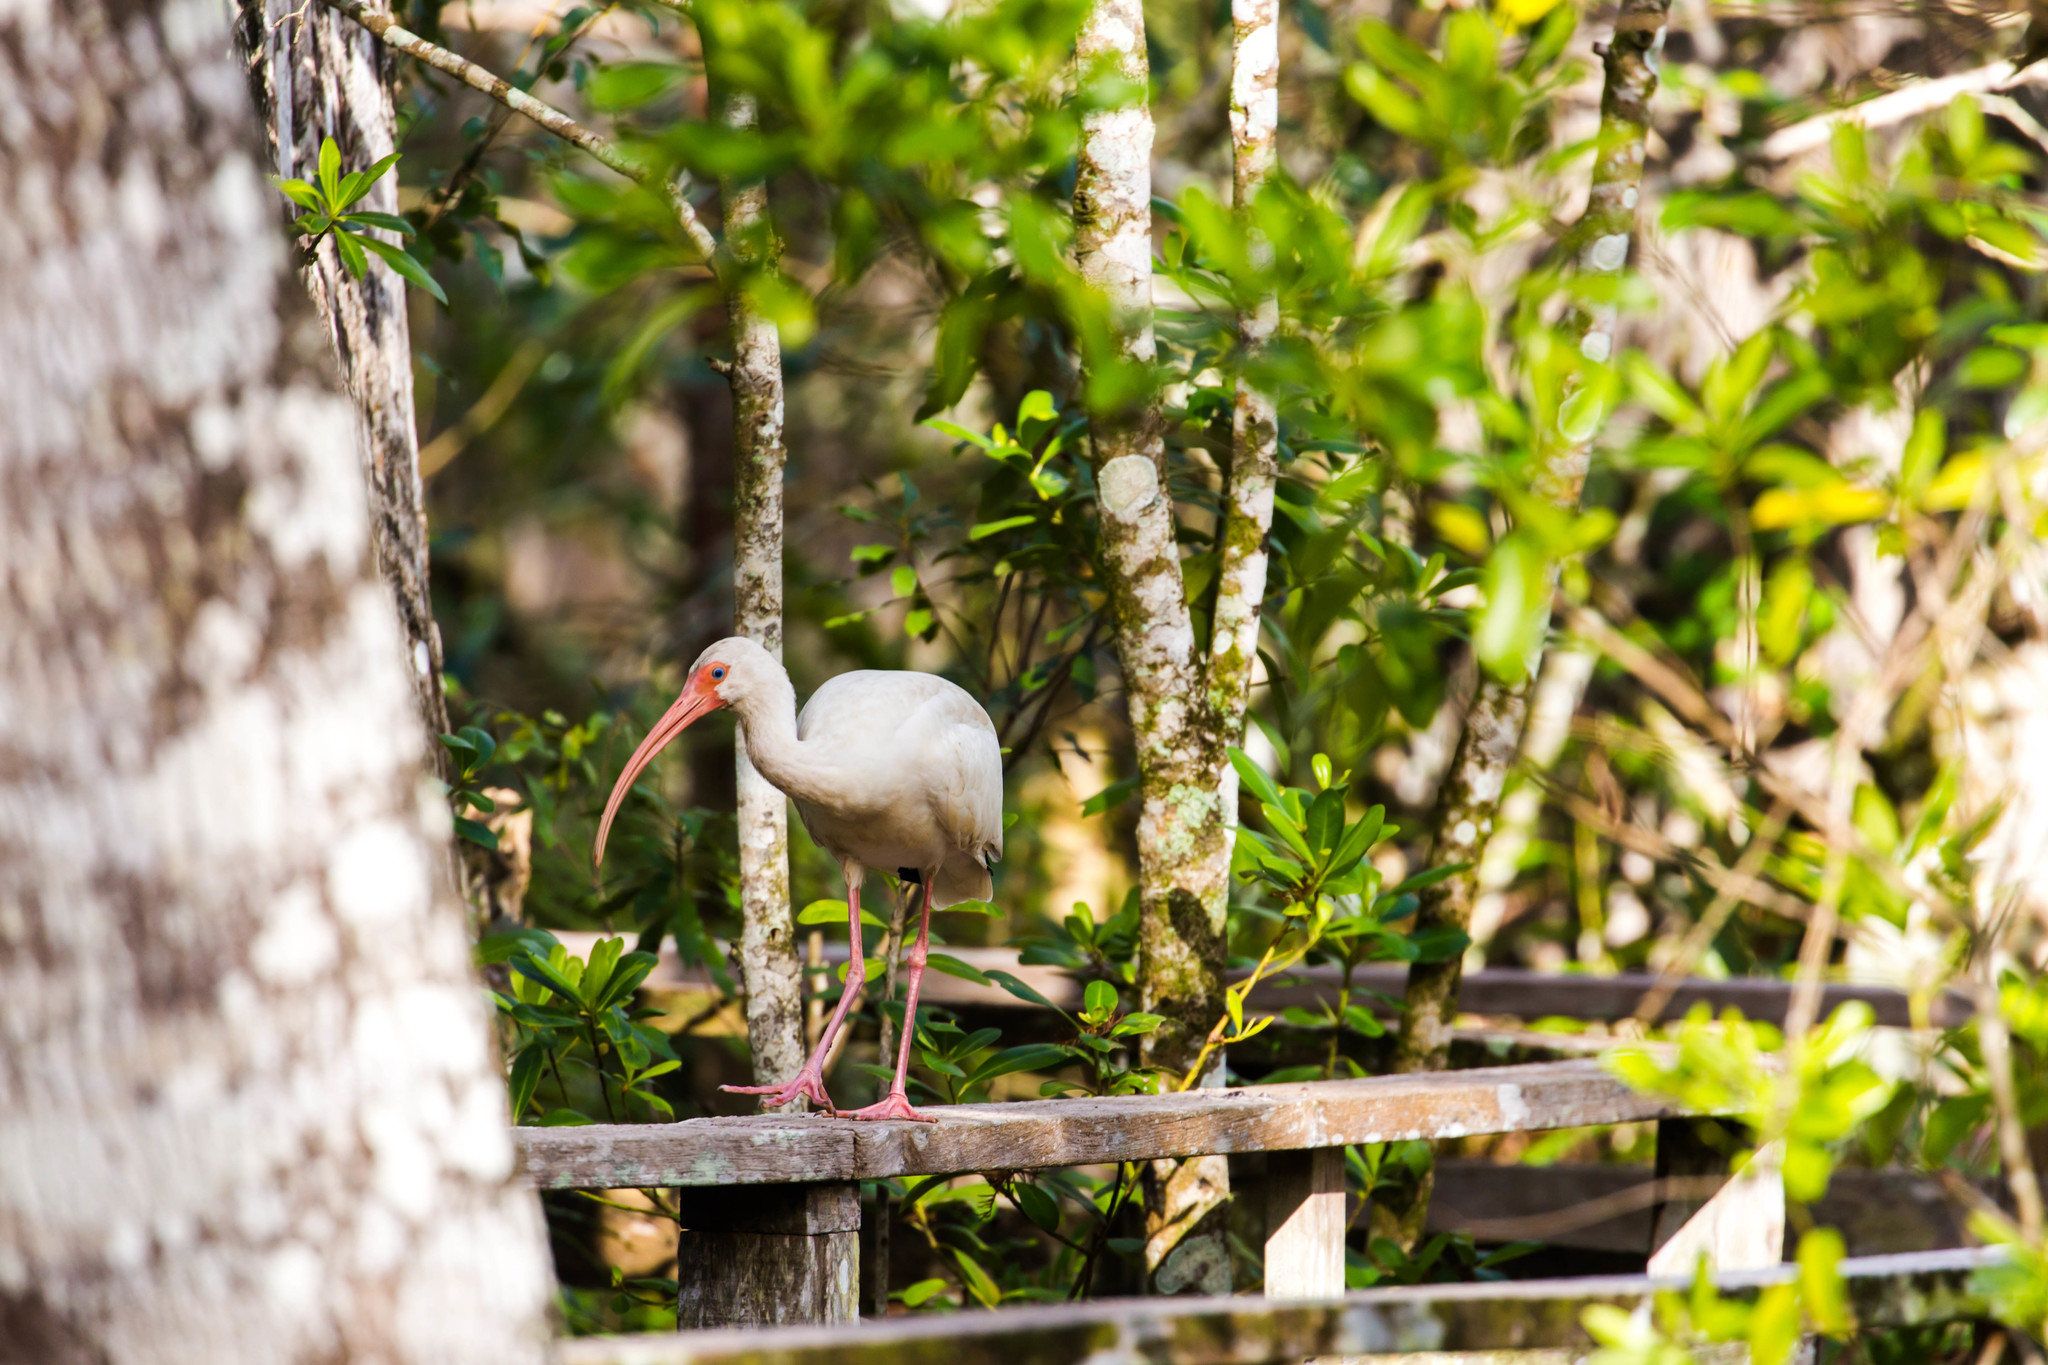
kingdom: Animalia
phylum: Chordata
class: Aves
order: Pelecaniformes
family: Threskiornithidae
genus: Eudocimus
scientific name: Eudocimus albus
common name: White ibis
